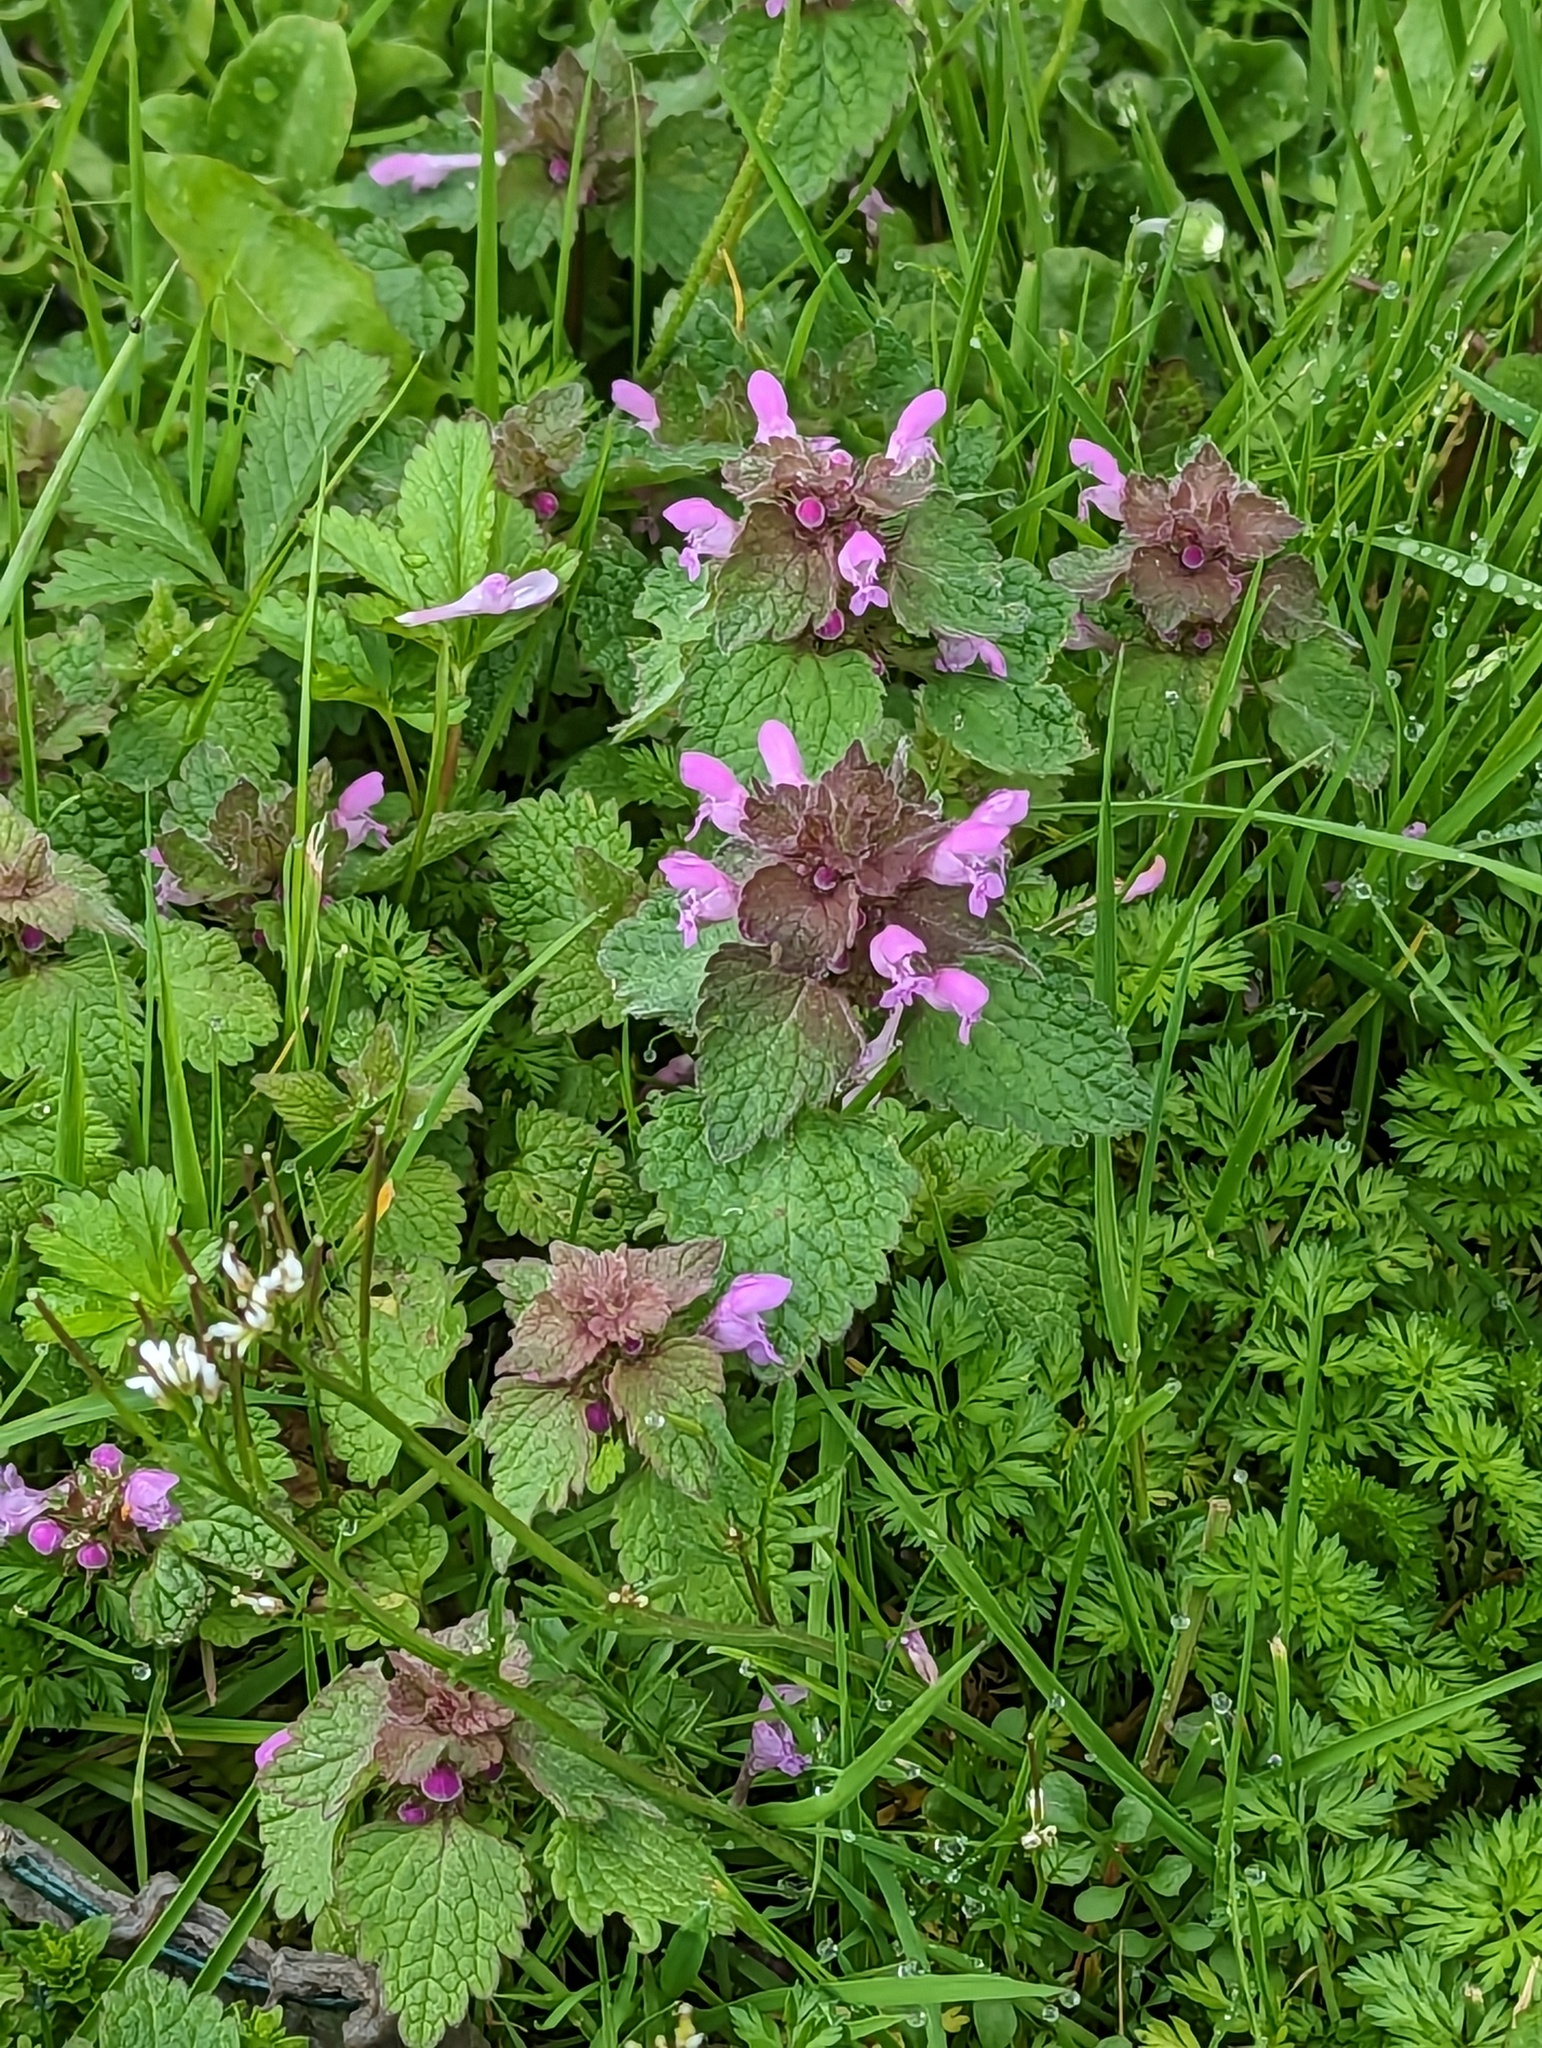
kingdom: Plantae
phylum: Tracheophyta
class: Magnoliopsida
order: Lamiales
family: Lamiaceae
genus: Lamium
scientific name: Lamium purpureum
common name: Red dead-nettle
